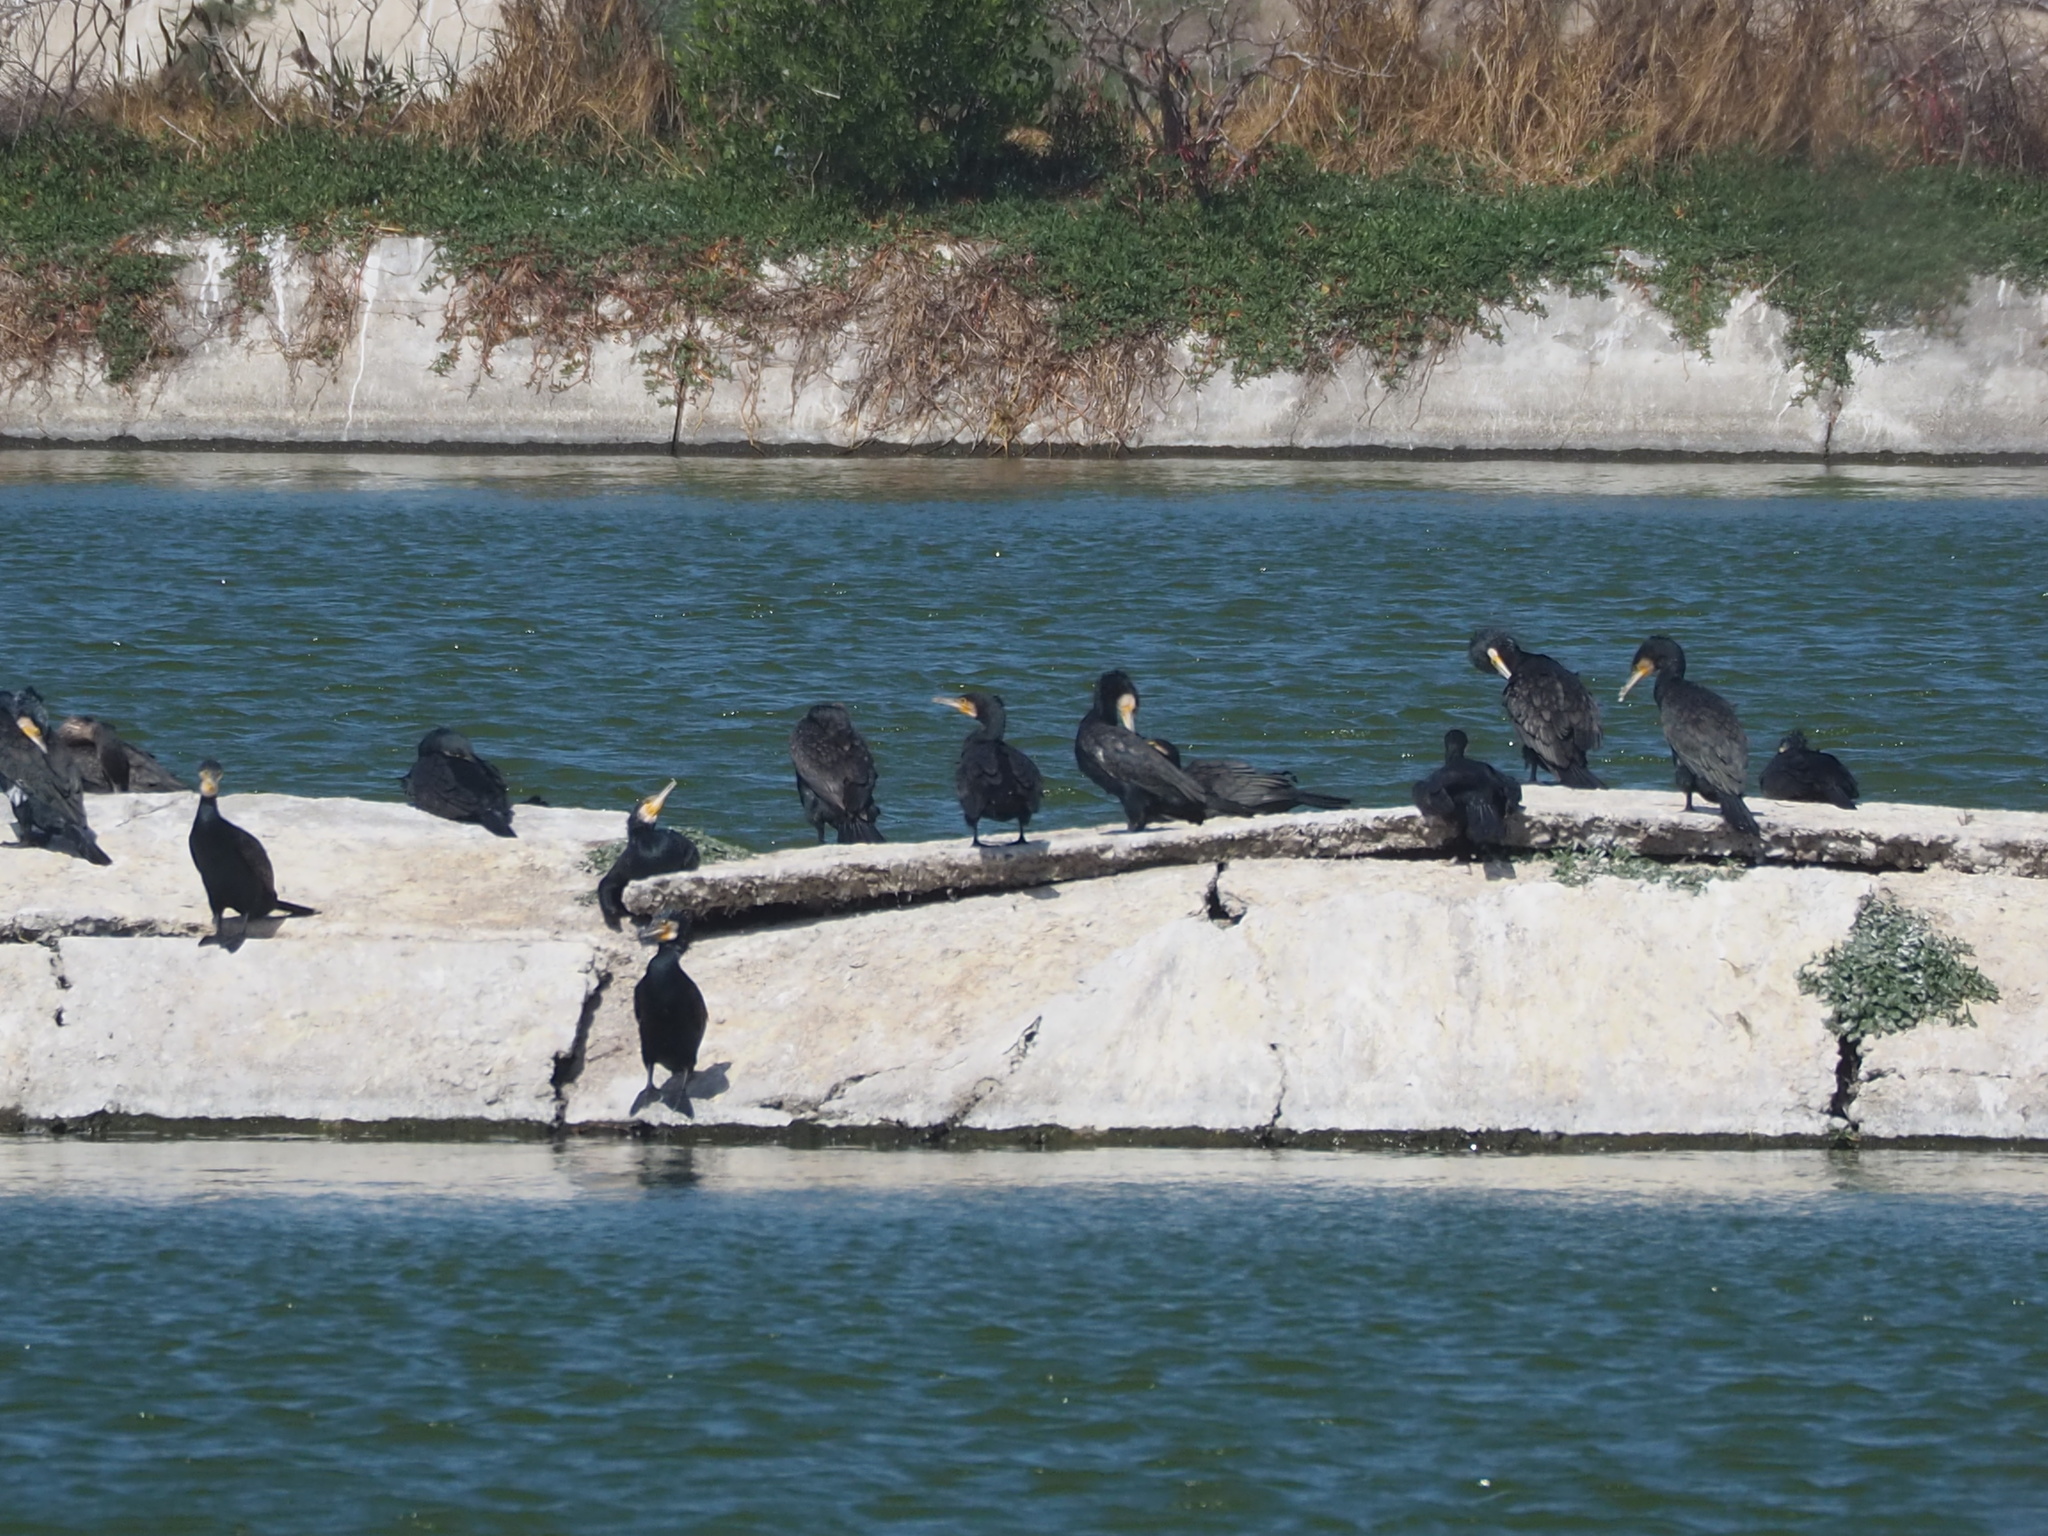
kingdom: Animalia
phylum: Chordata
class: Aves
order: Suliformes
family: Phalacrocoracidae
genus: Phalacrocorax
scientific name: Phalacrocorax carbo
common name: Great cormorant
